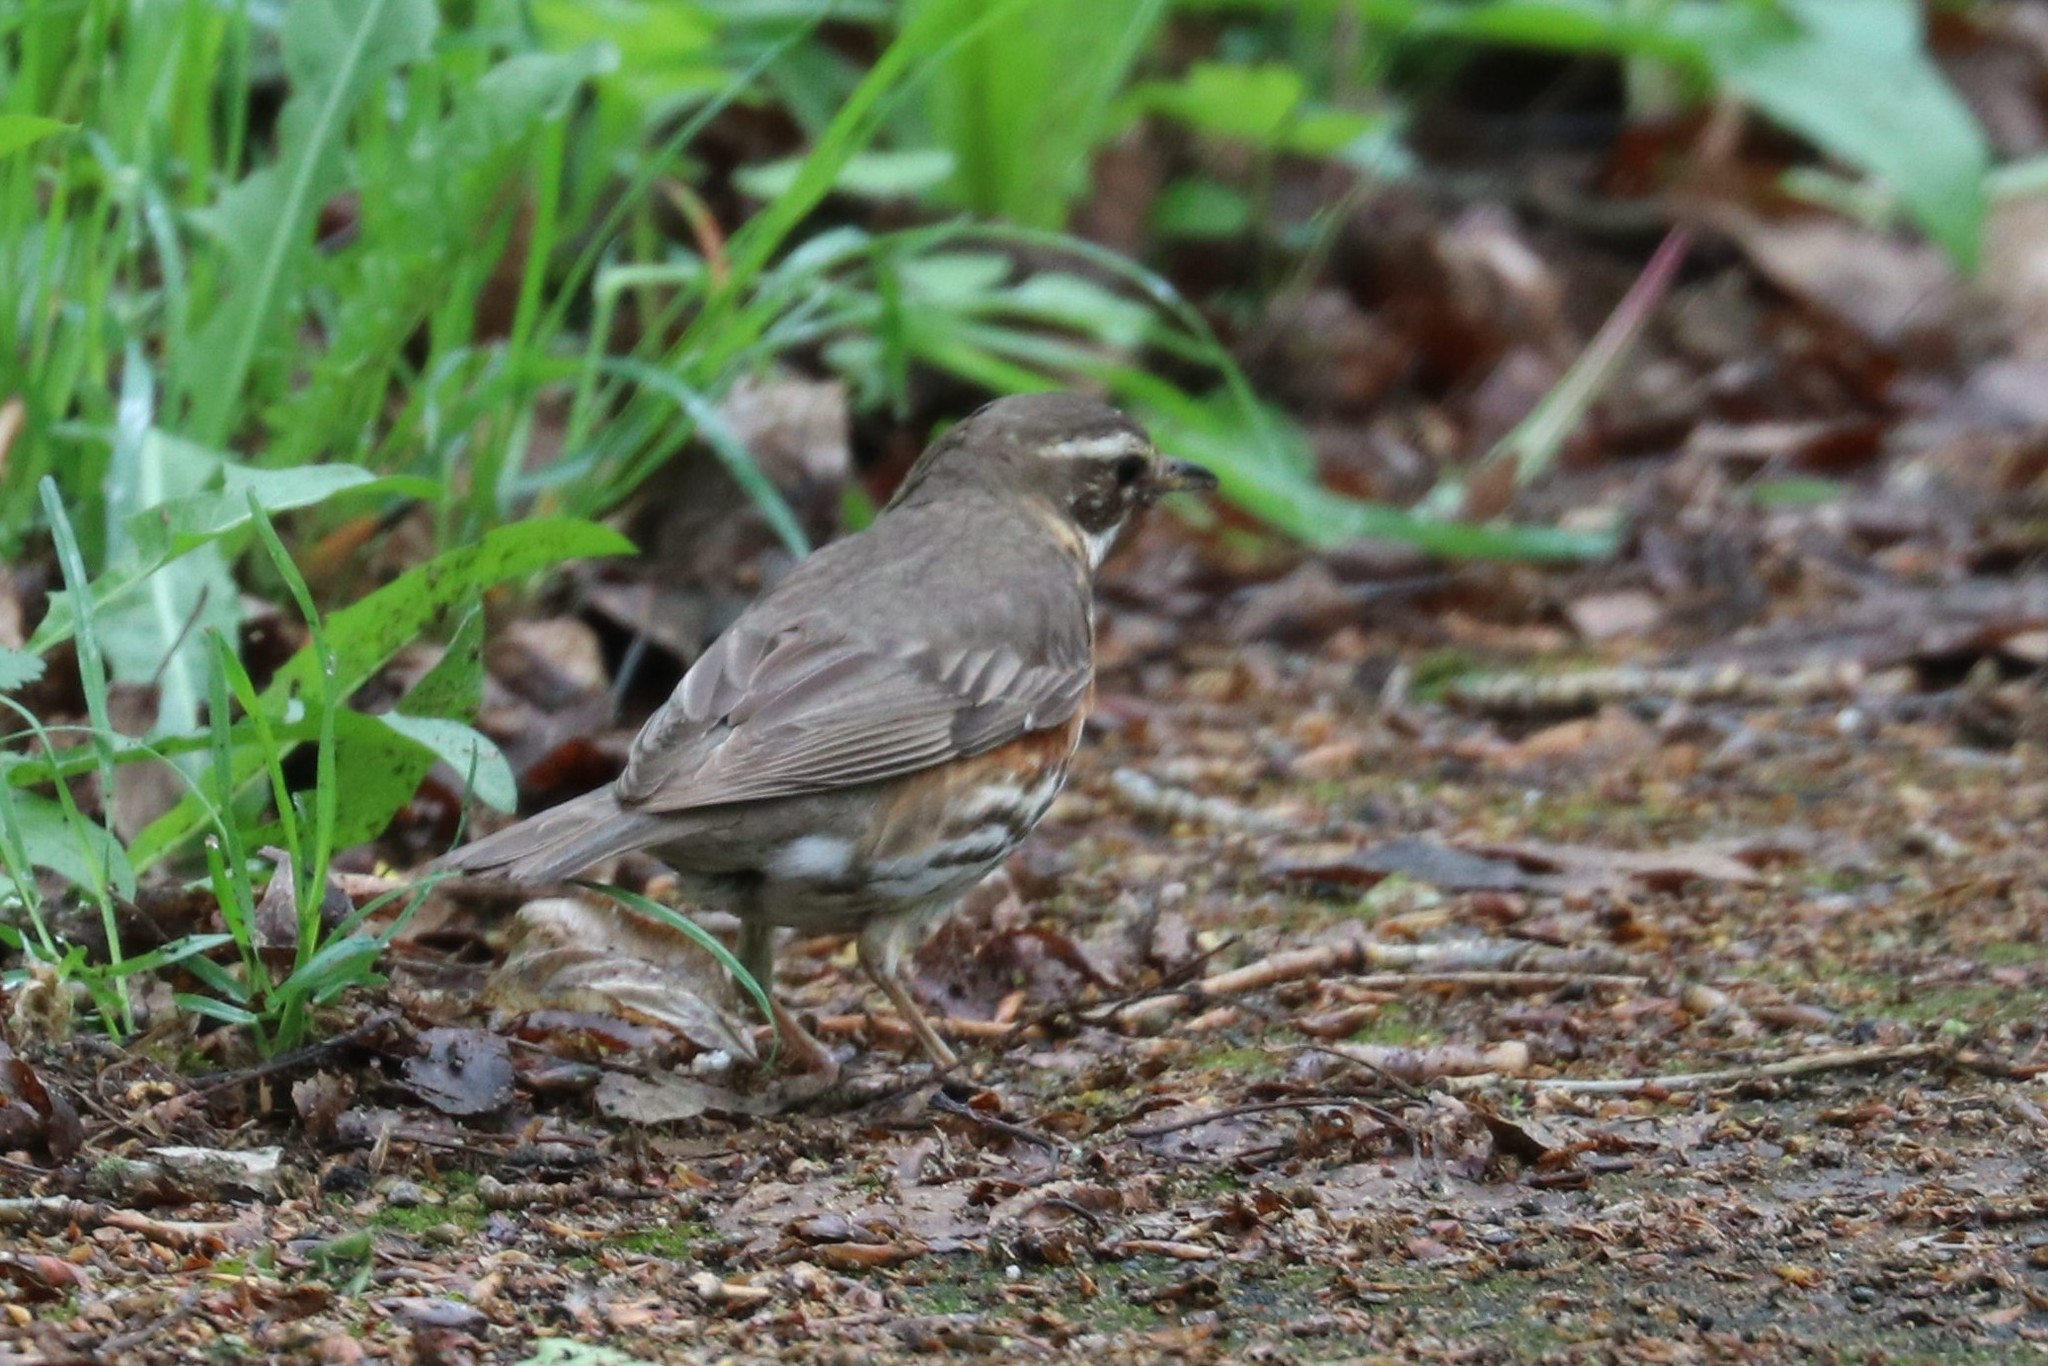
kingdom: Animalia
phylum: Chordata
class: Aves
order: Passeriformes
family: Turdidae
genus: Turdus
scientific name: Turdus iliacus
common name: Redwing
